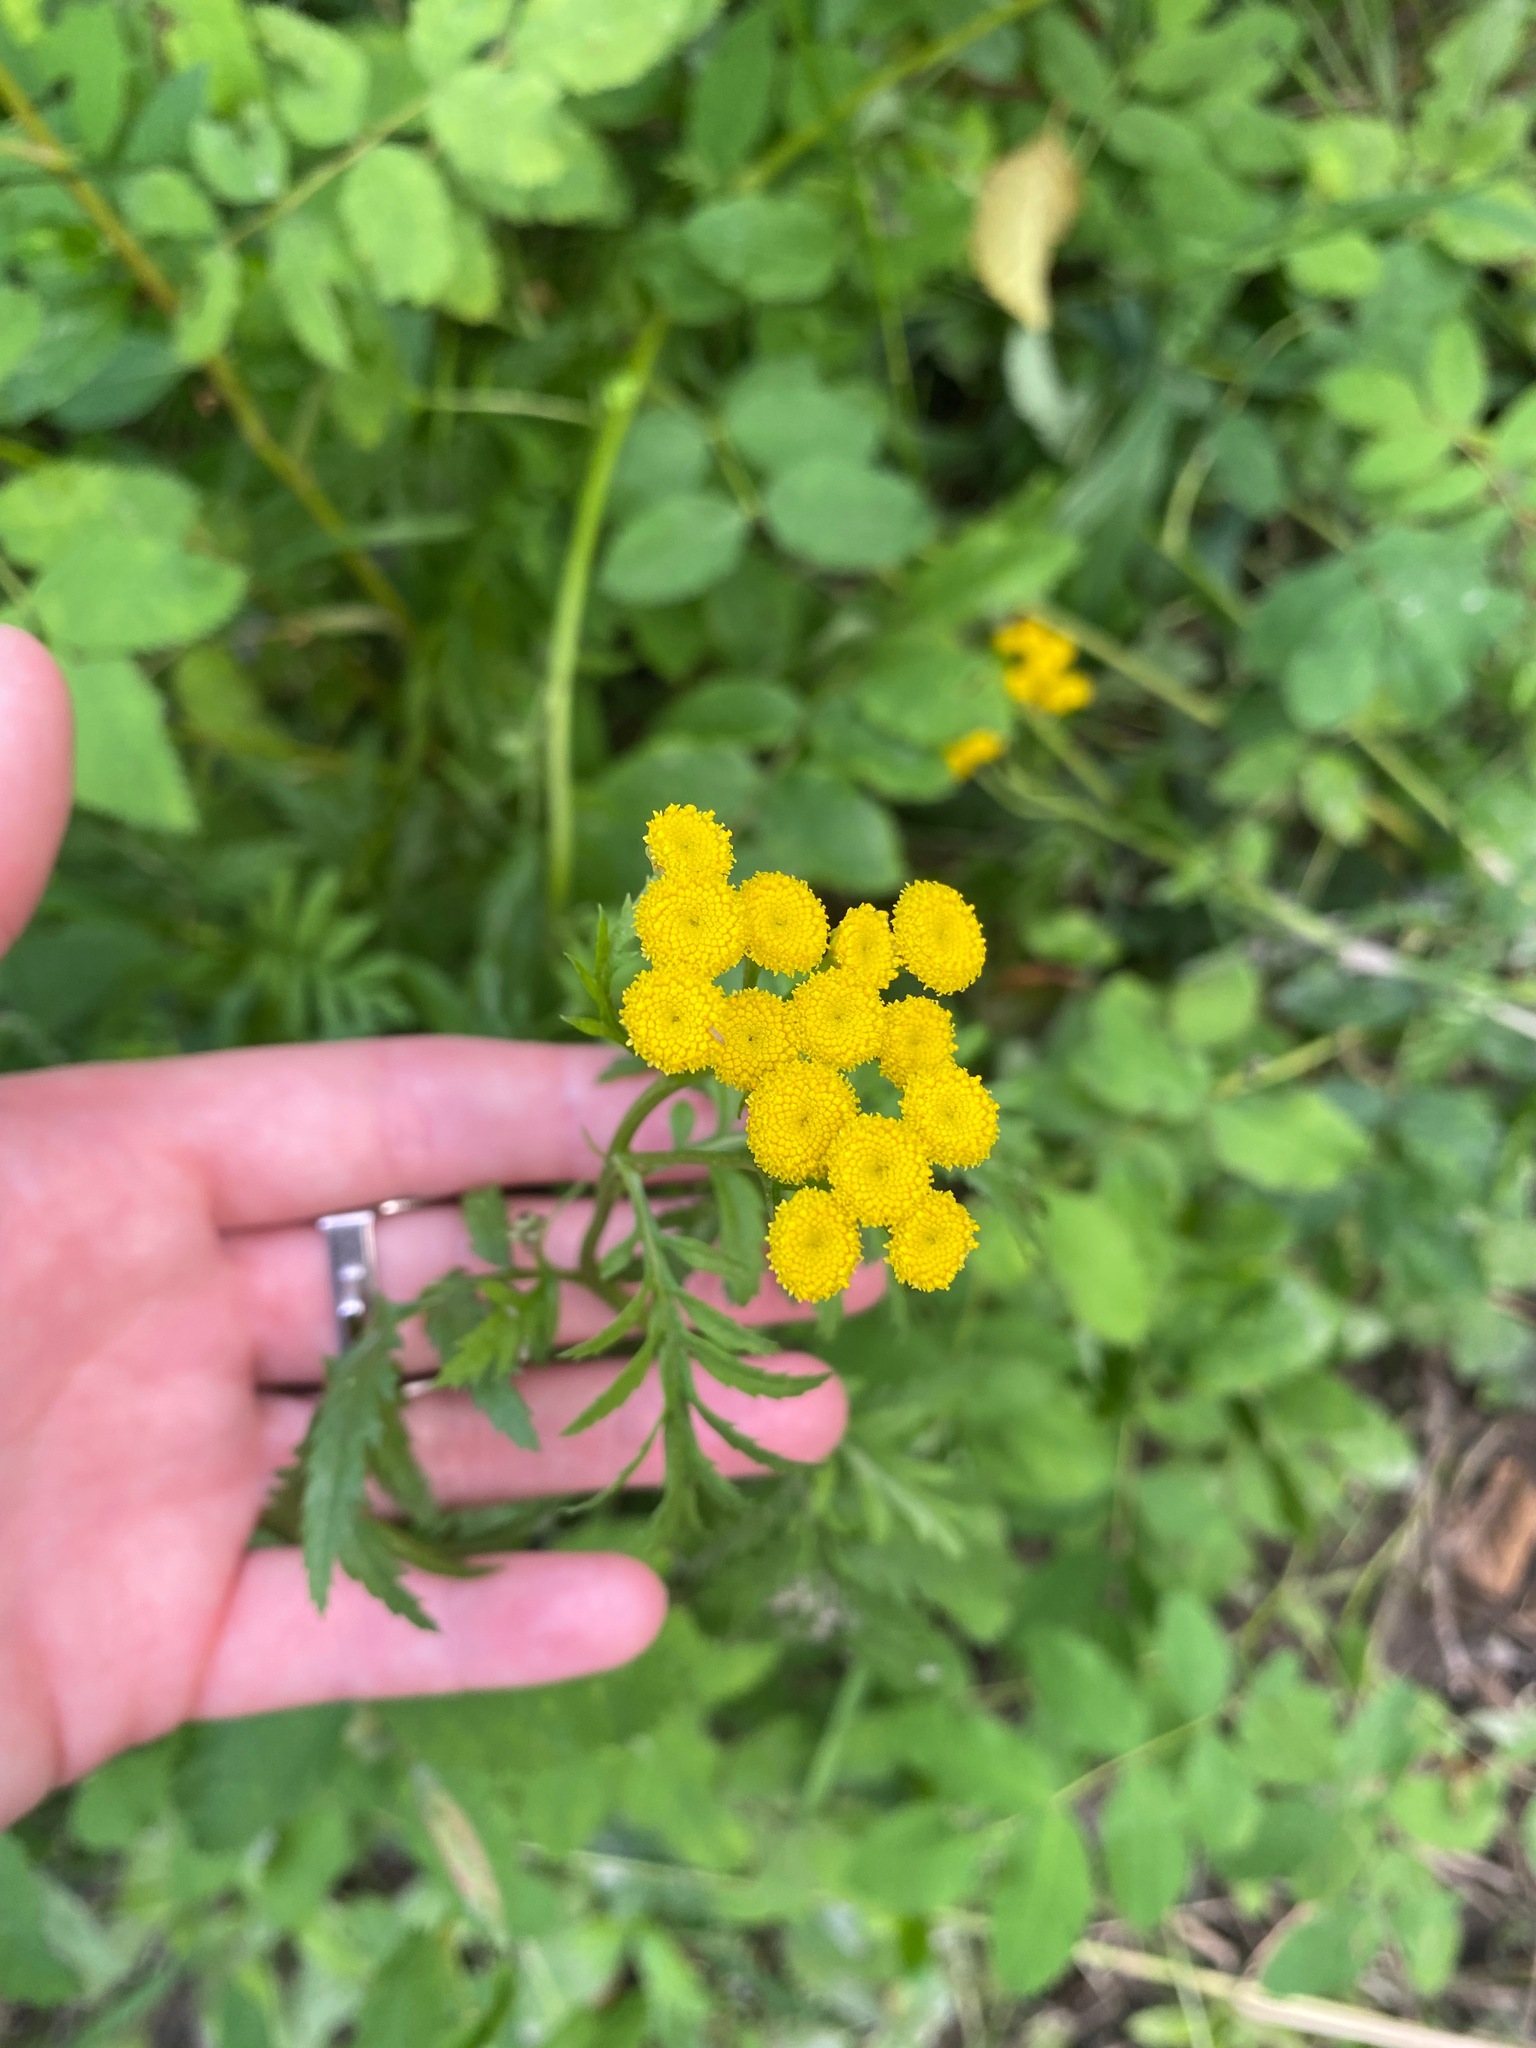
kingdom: Plantae
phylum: Tracheophyta
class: Magnoliopsida
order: Asterales
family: Asteraceae
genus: Tanacetum
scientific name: Tanacetum vulgare
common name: Common tansy
